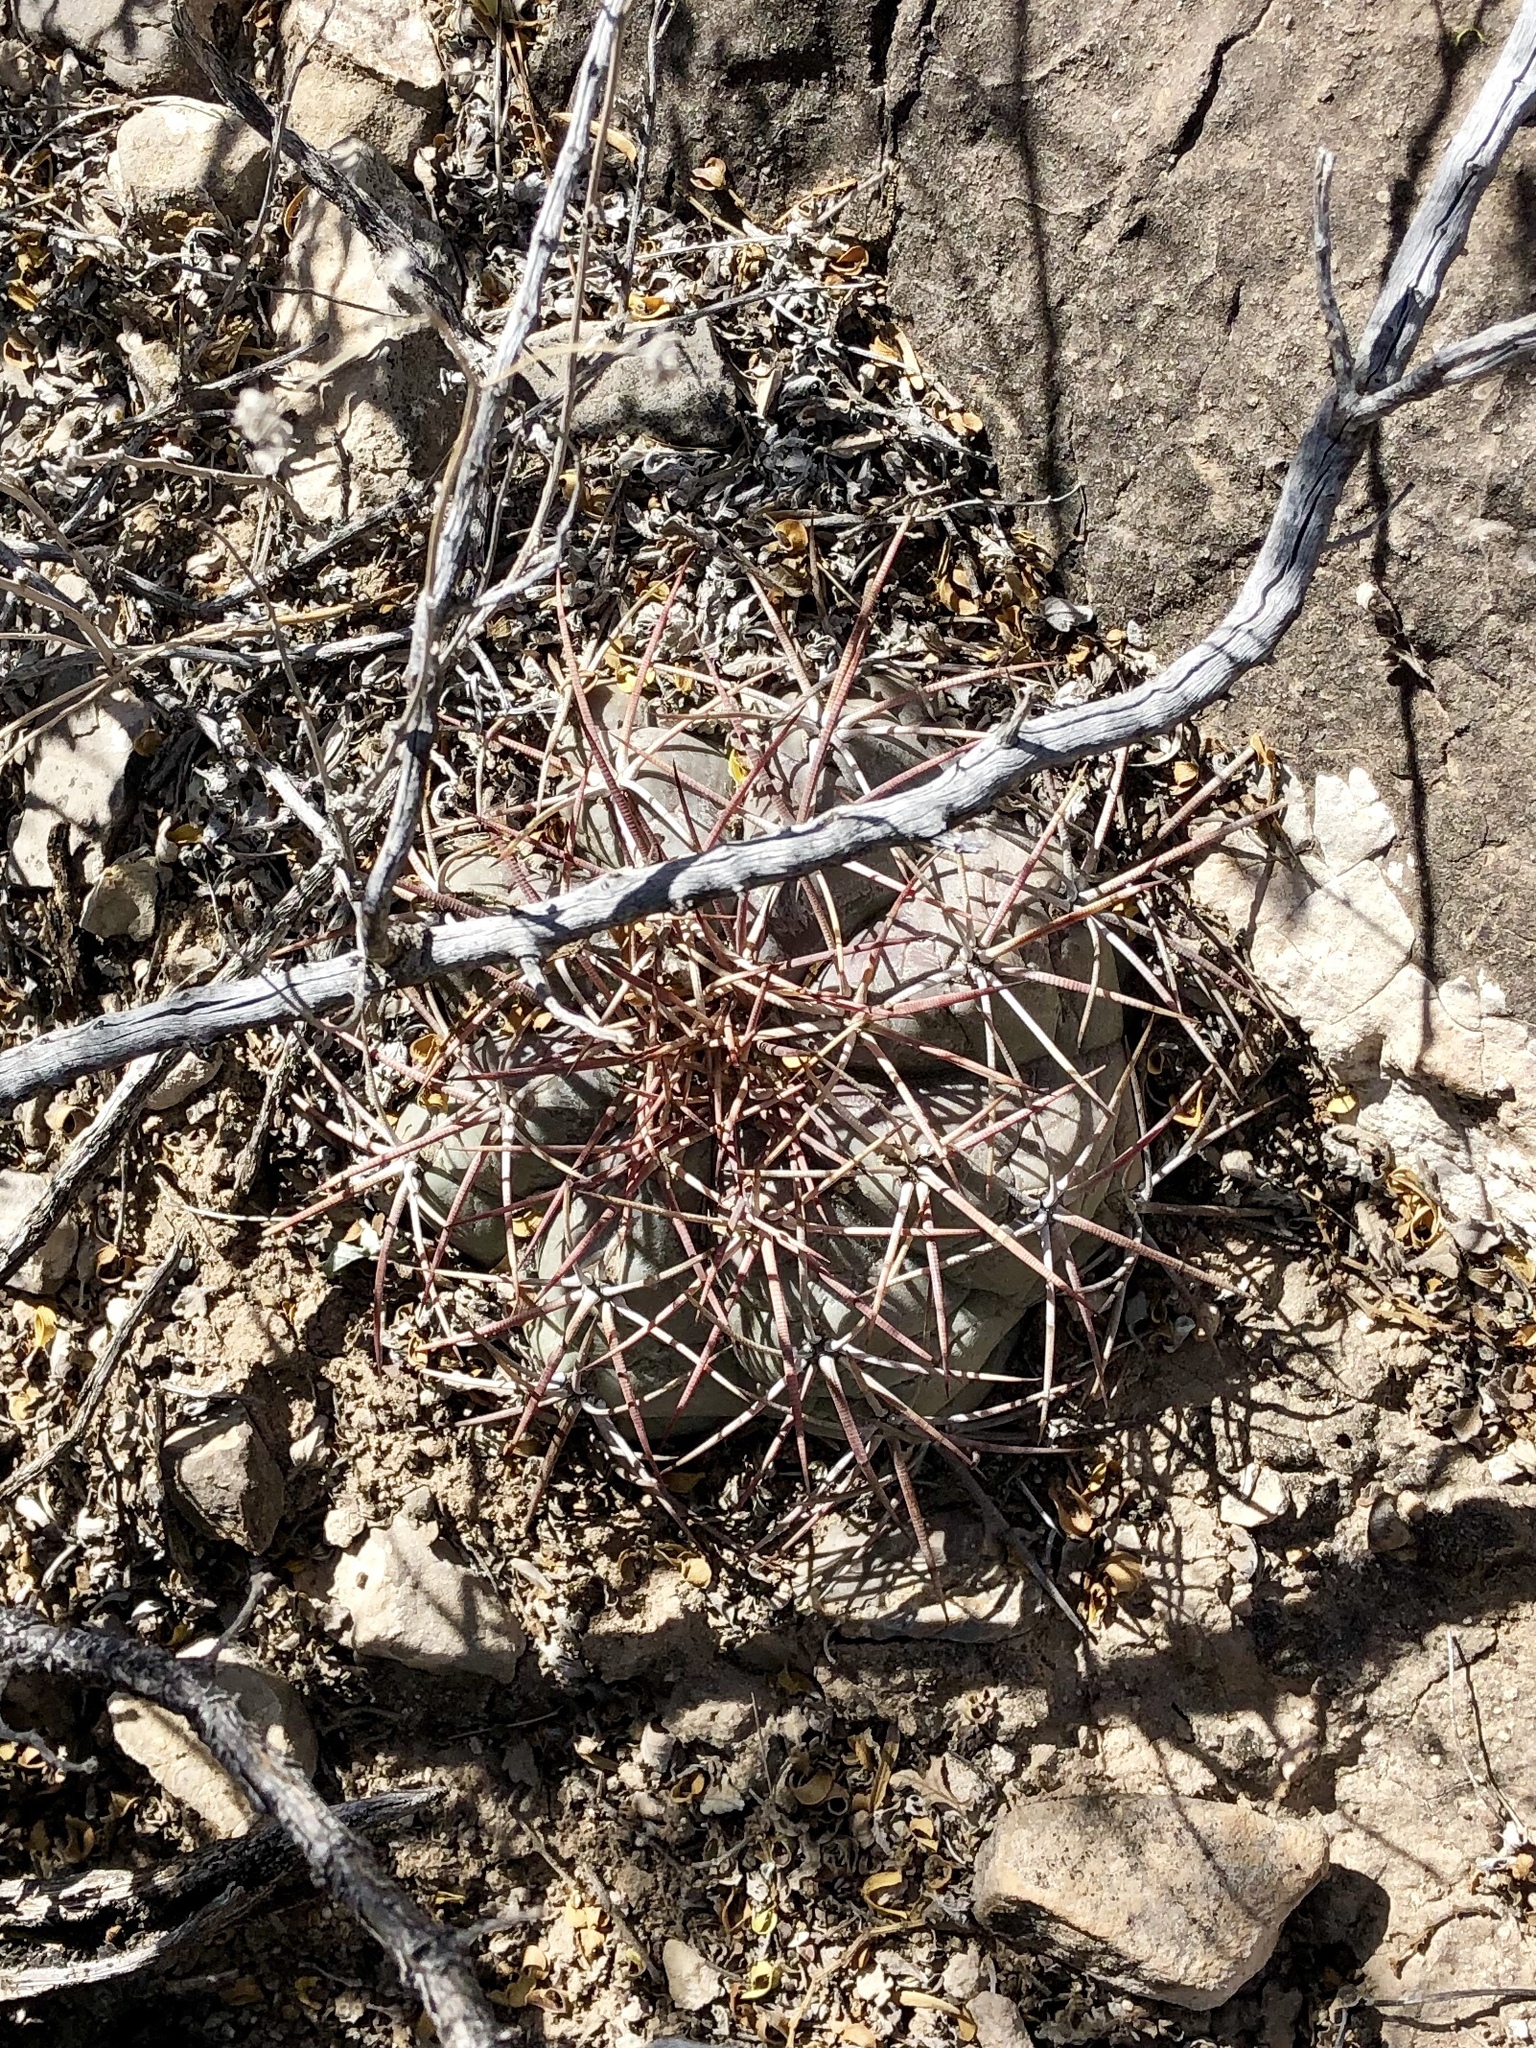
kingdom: Plantae
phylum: Tracheophyta
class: Magnoliopsida
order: Caryophyllales
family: Cactaceae
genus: Echinocactus
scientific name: Echinocactus horizonthalonius
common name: Devilshead
